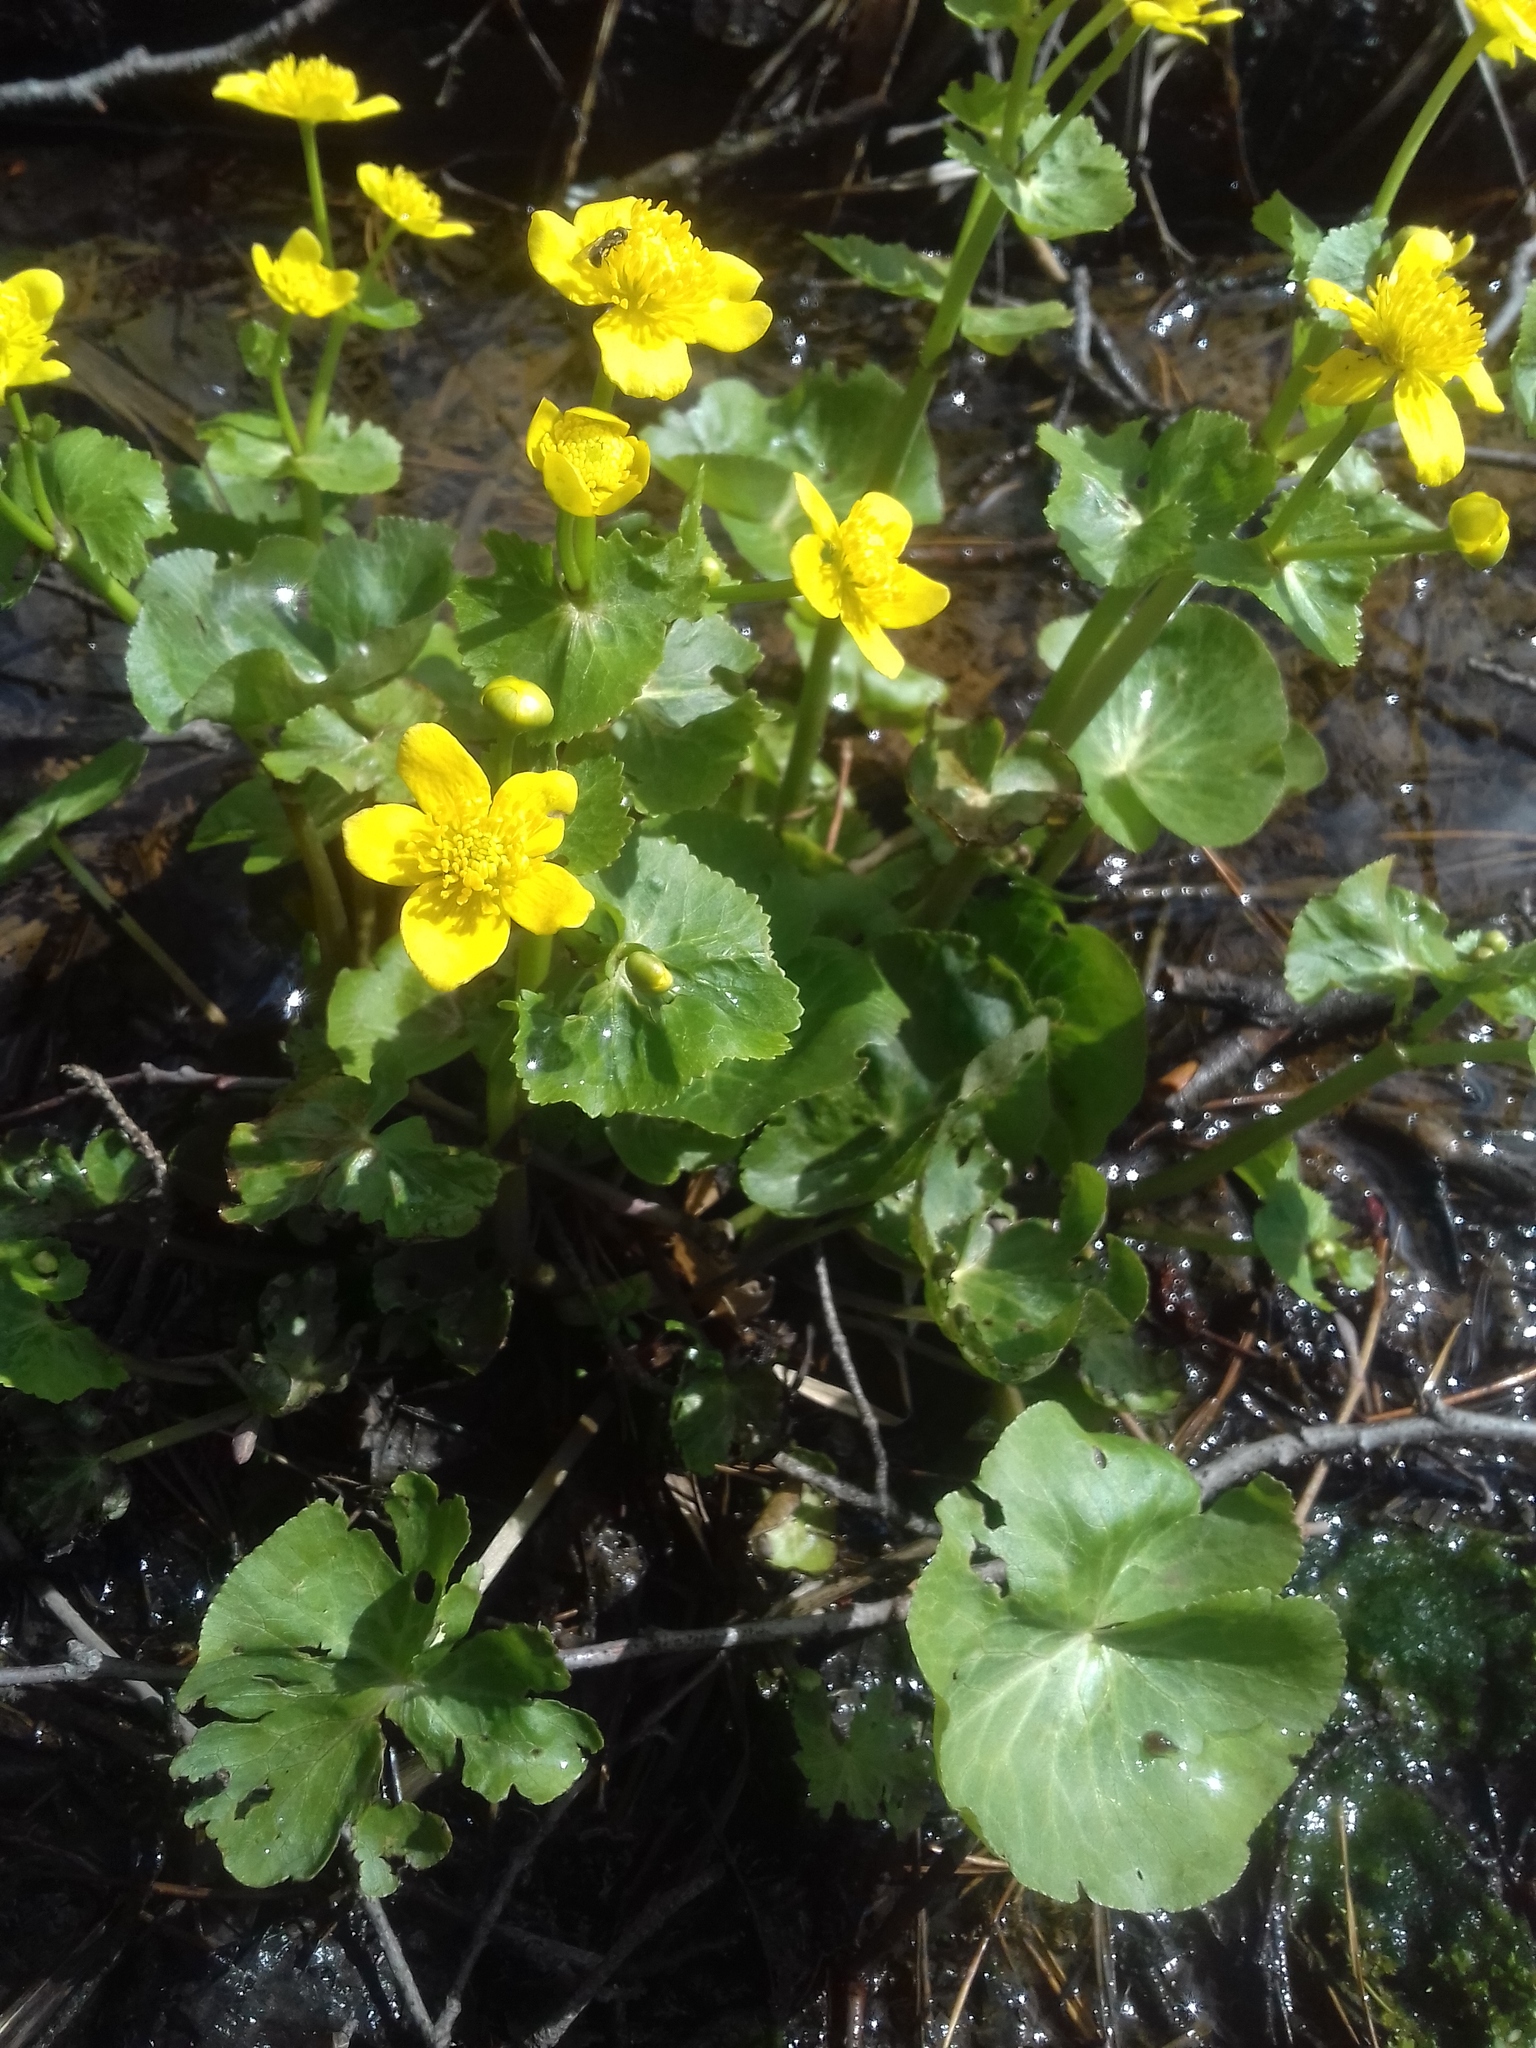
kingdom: Plantae
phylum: Tracheophyta
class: Magnoliopsida
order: Ranunculales
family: Ranunculaceae
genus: Caltha
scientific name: Caltha palustris
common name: Marsh marigold
